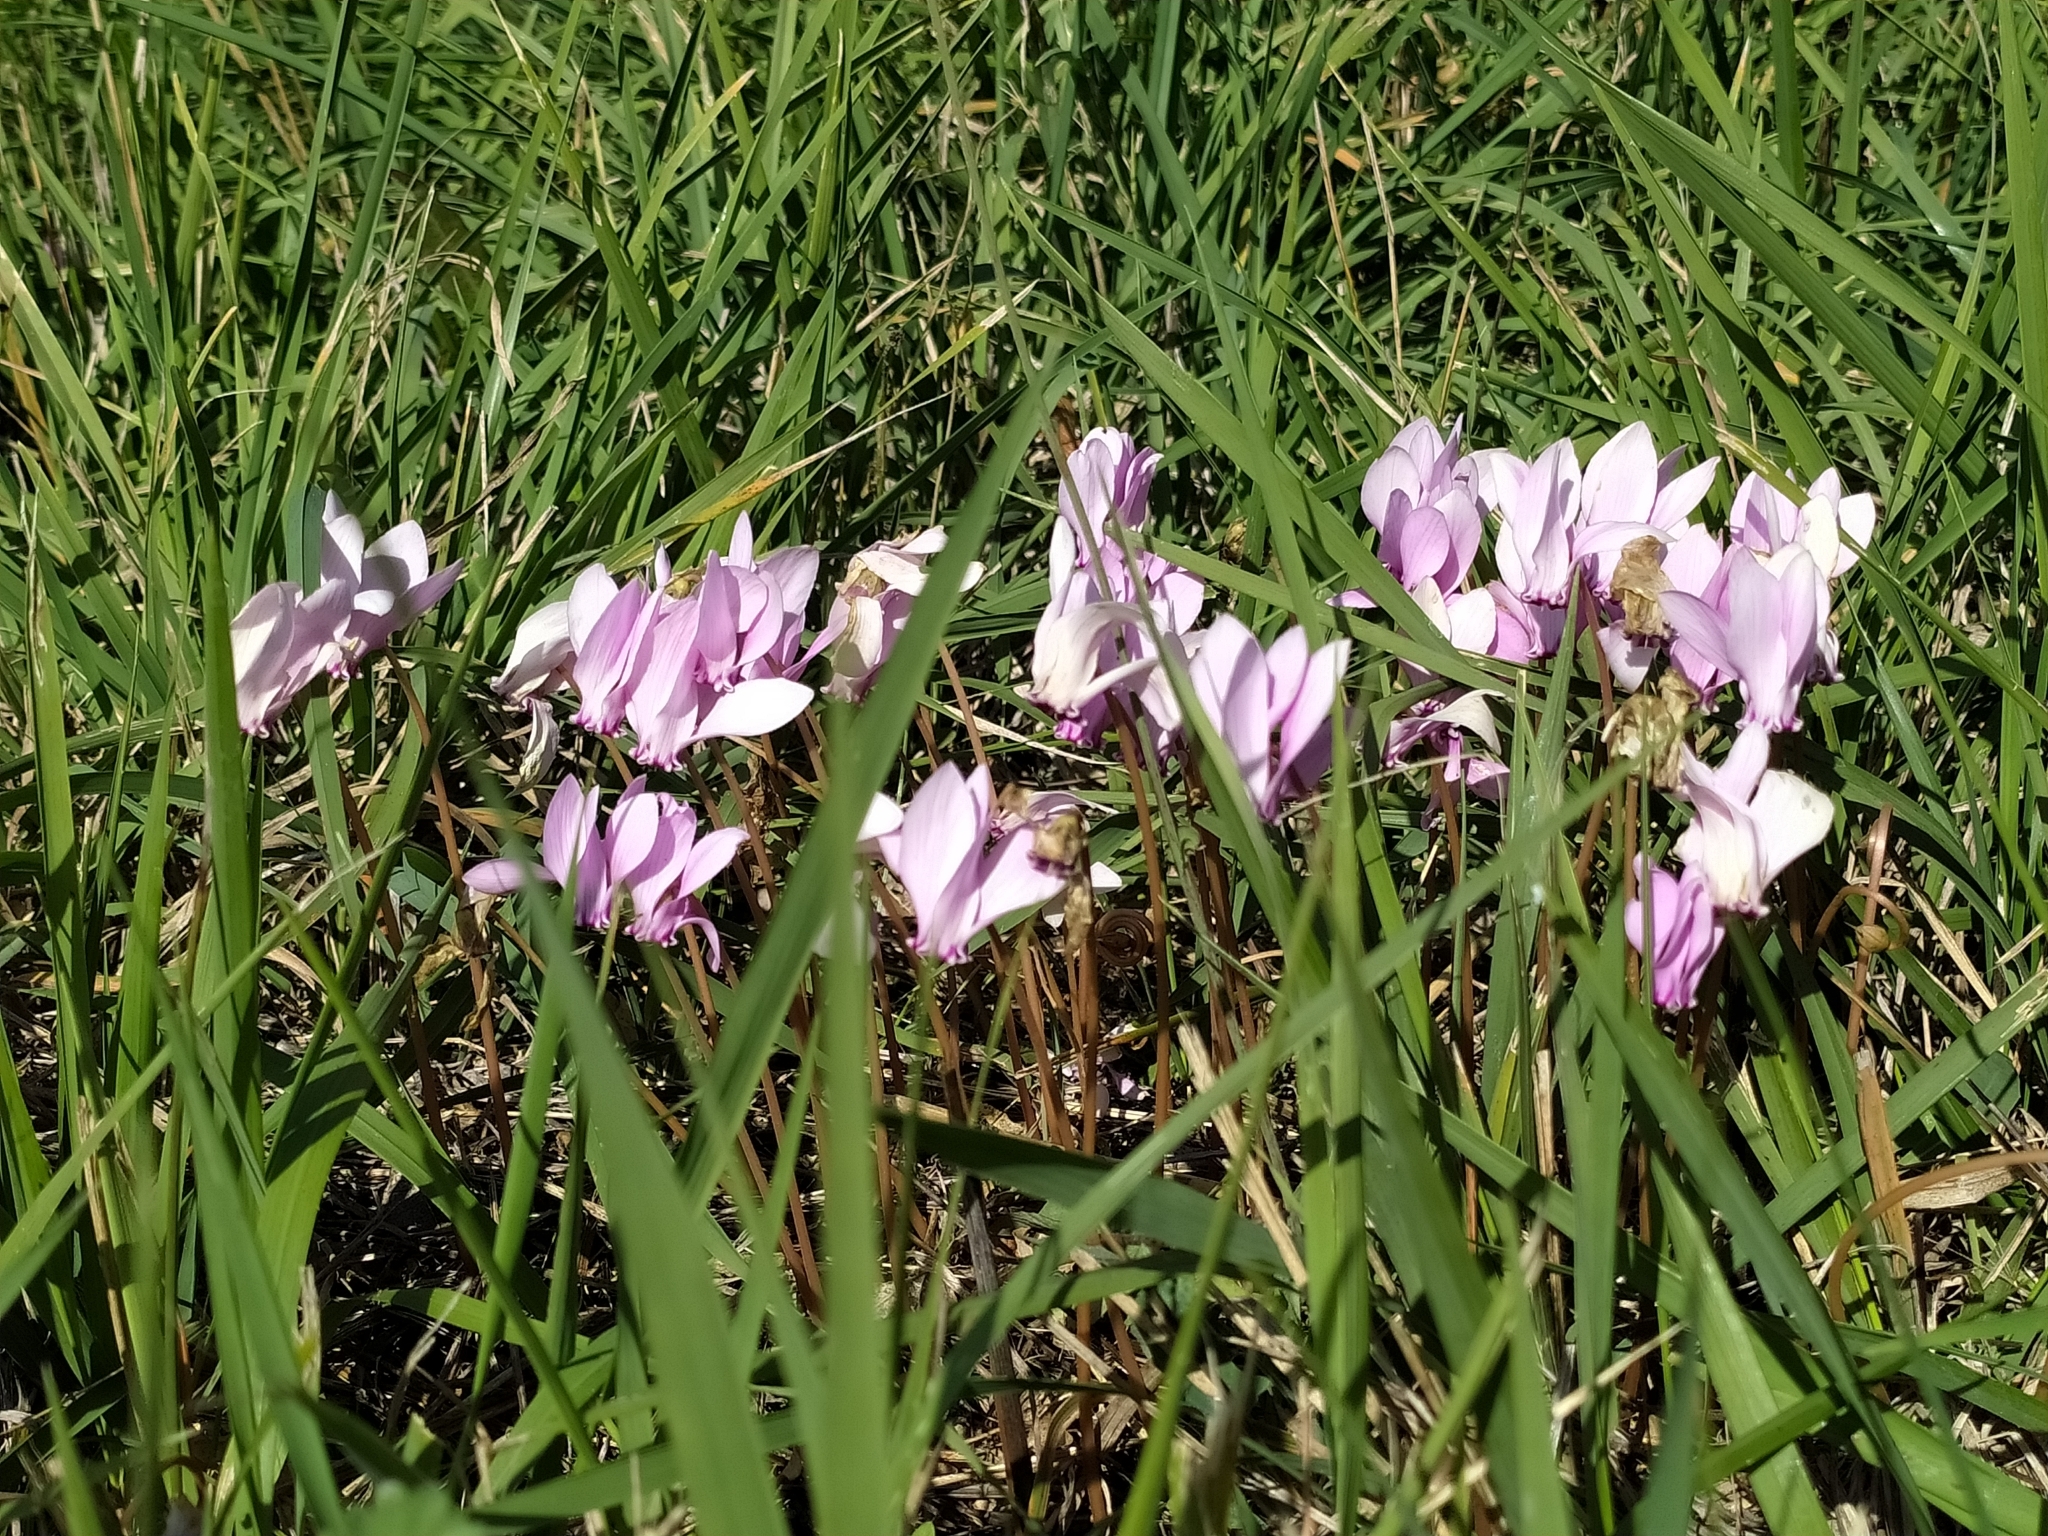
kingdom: Plantae
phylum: Tracheophyta
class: Magnoliopsida
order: Ericales
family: Primulaceae
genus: Cyclamen
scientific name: Cyclamen hederifolium
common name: Sowbread
